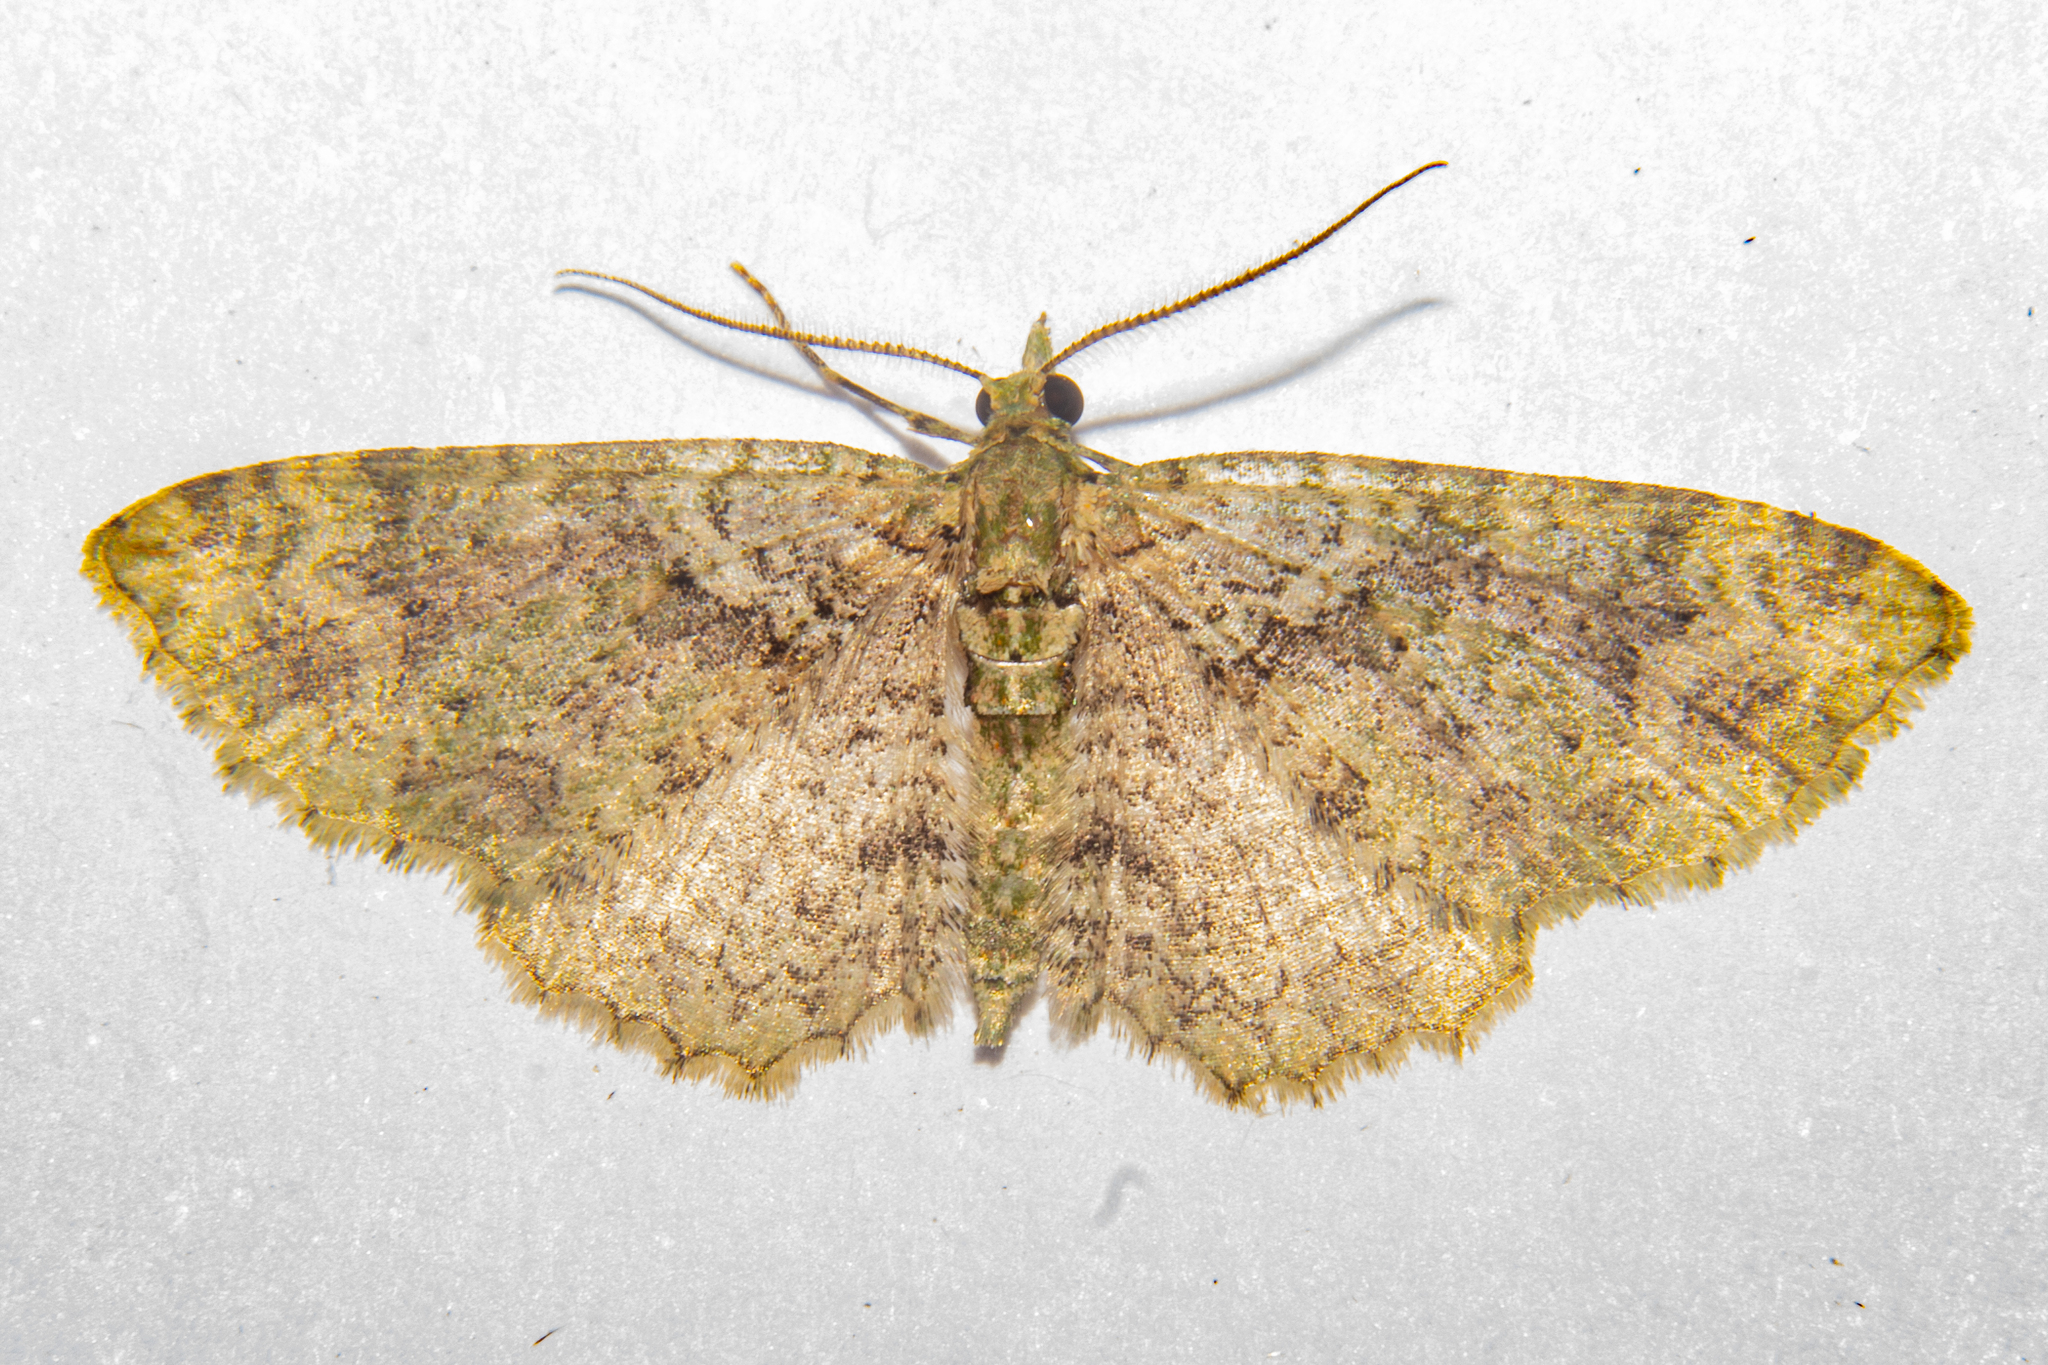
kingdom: Animalia
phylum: Arthropoda
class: Insecta
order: Lepidoptera
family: Geometridae
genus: Pasiphila
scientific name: Pasiphila muscosata
